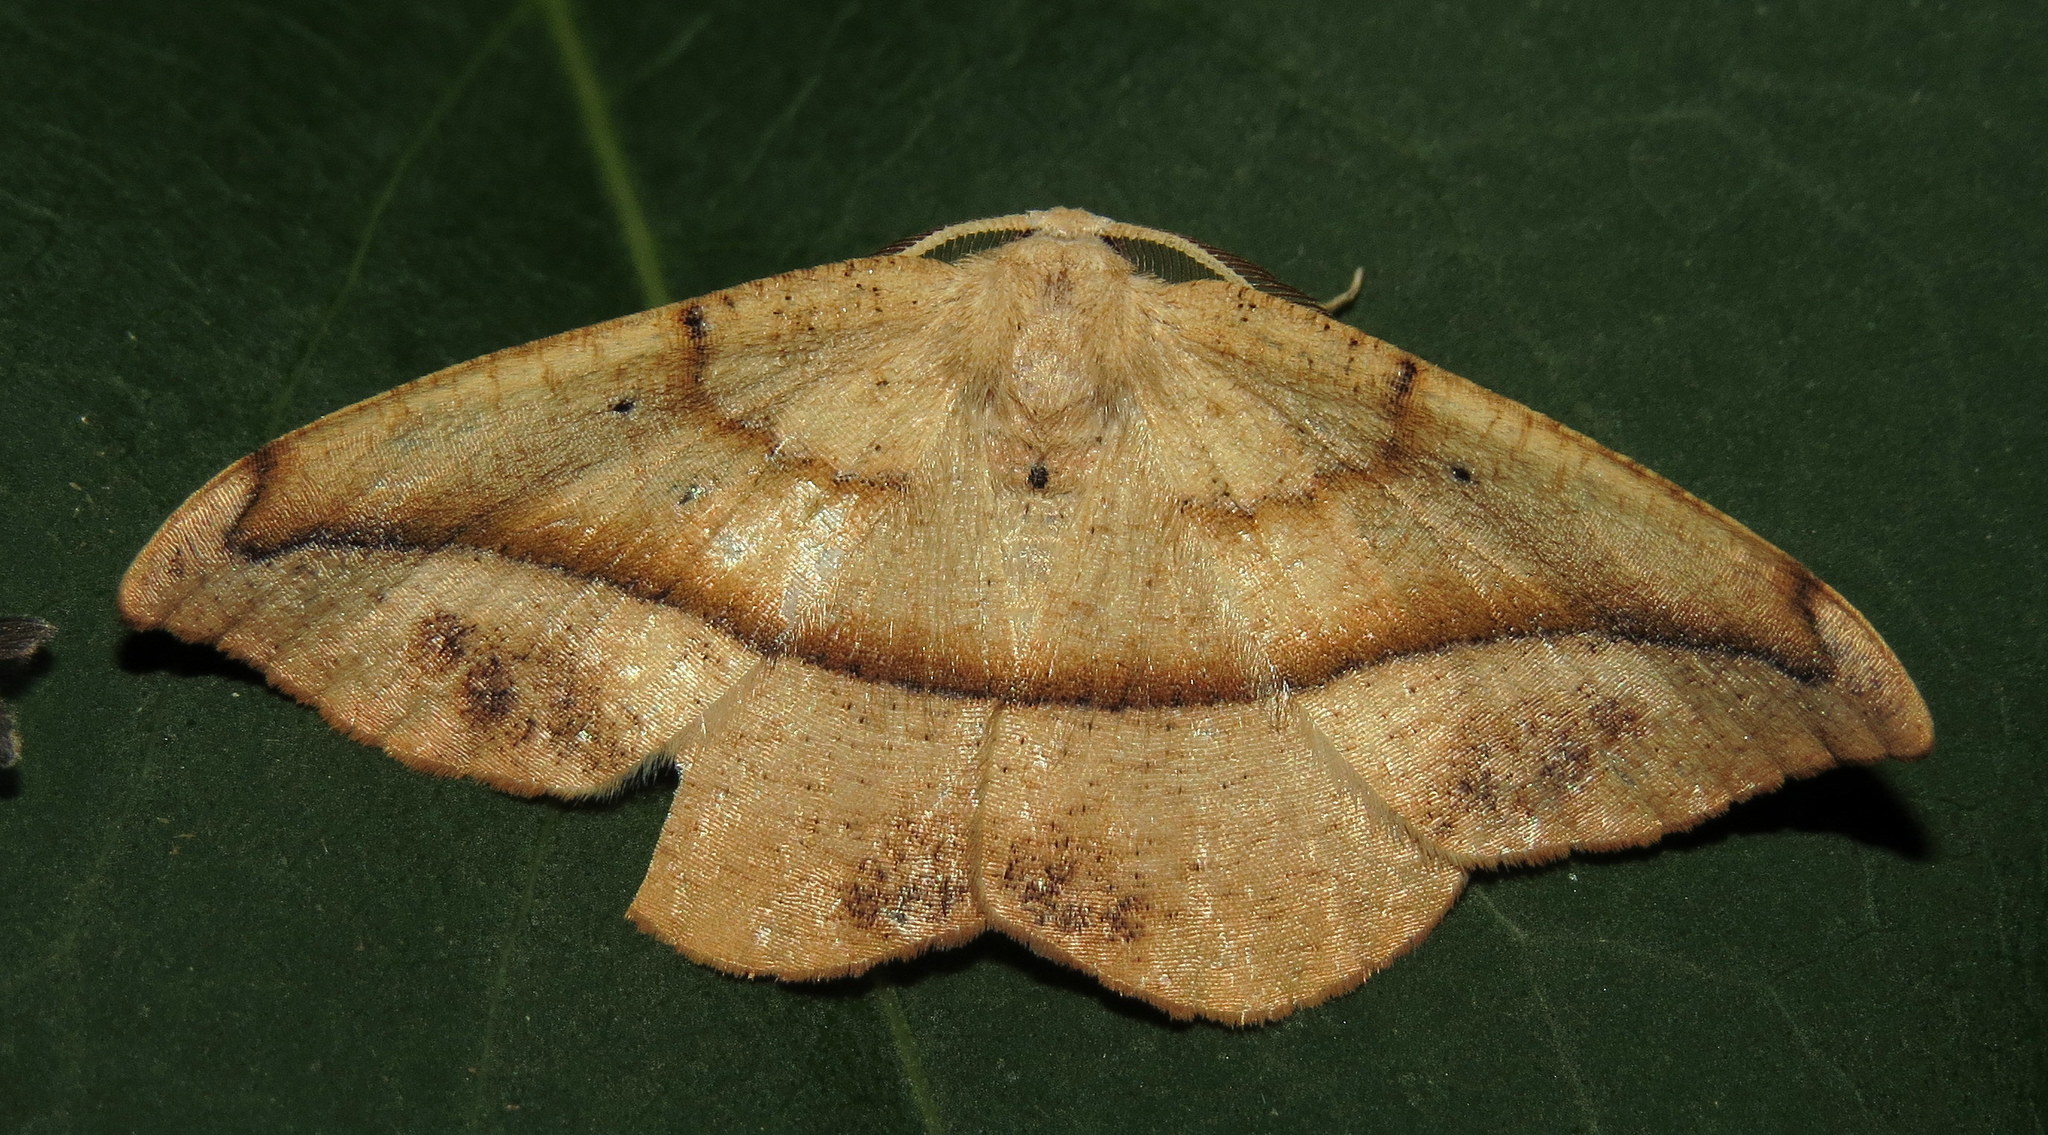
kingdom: Animalia
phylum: Arthropoda
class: Insecta
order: Lepidoptera
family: Geometridae
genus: Patalene
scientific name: Patalene olyzonaria
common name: Juniper geometer moth
